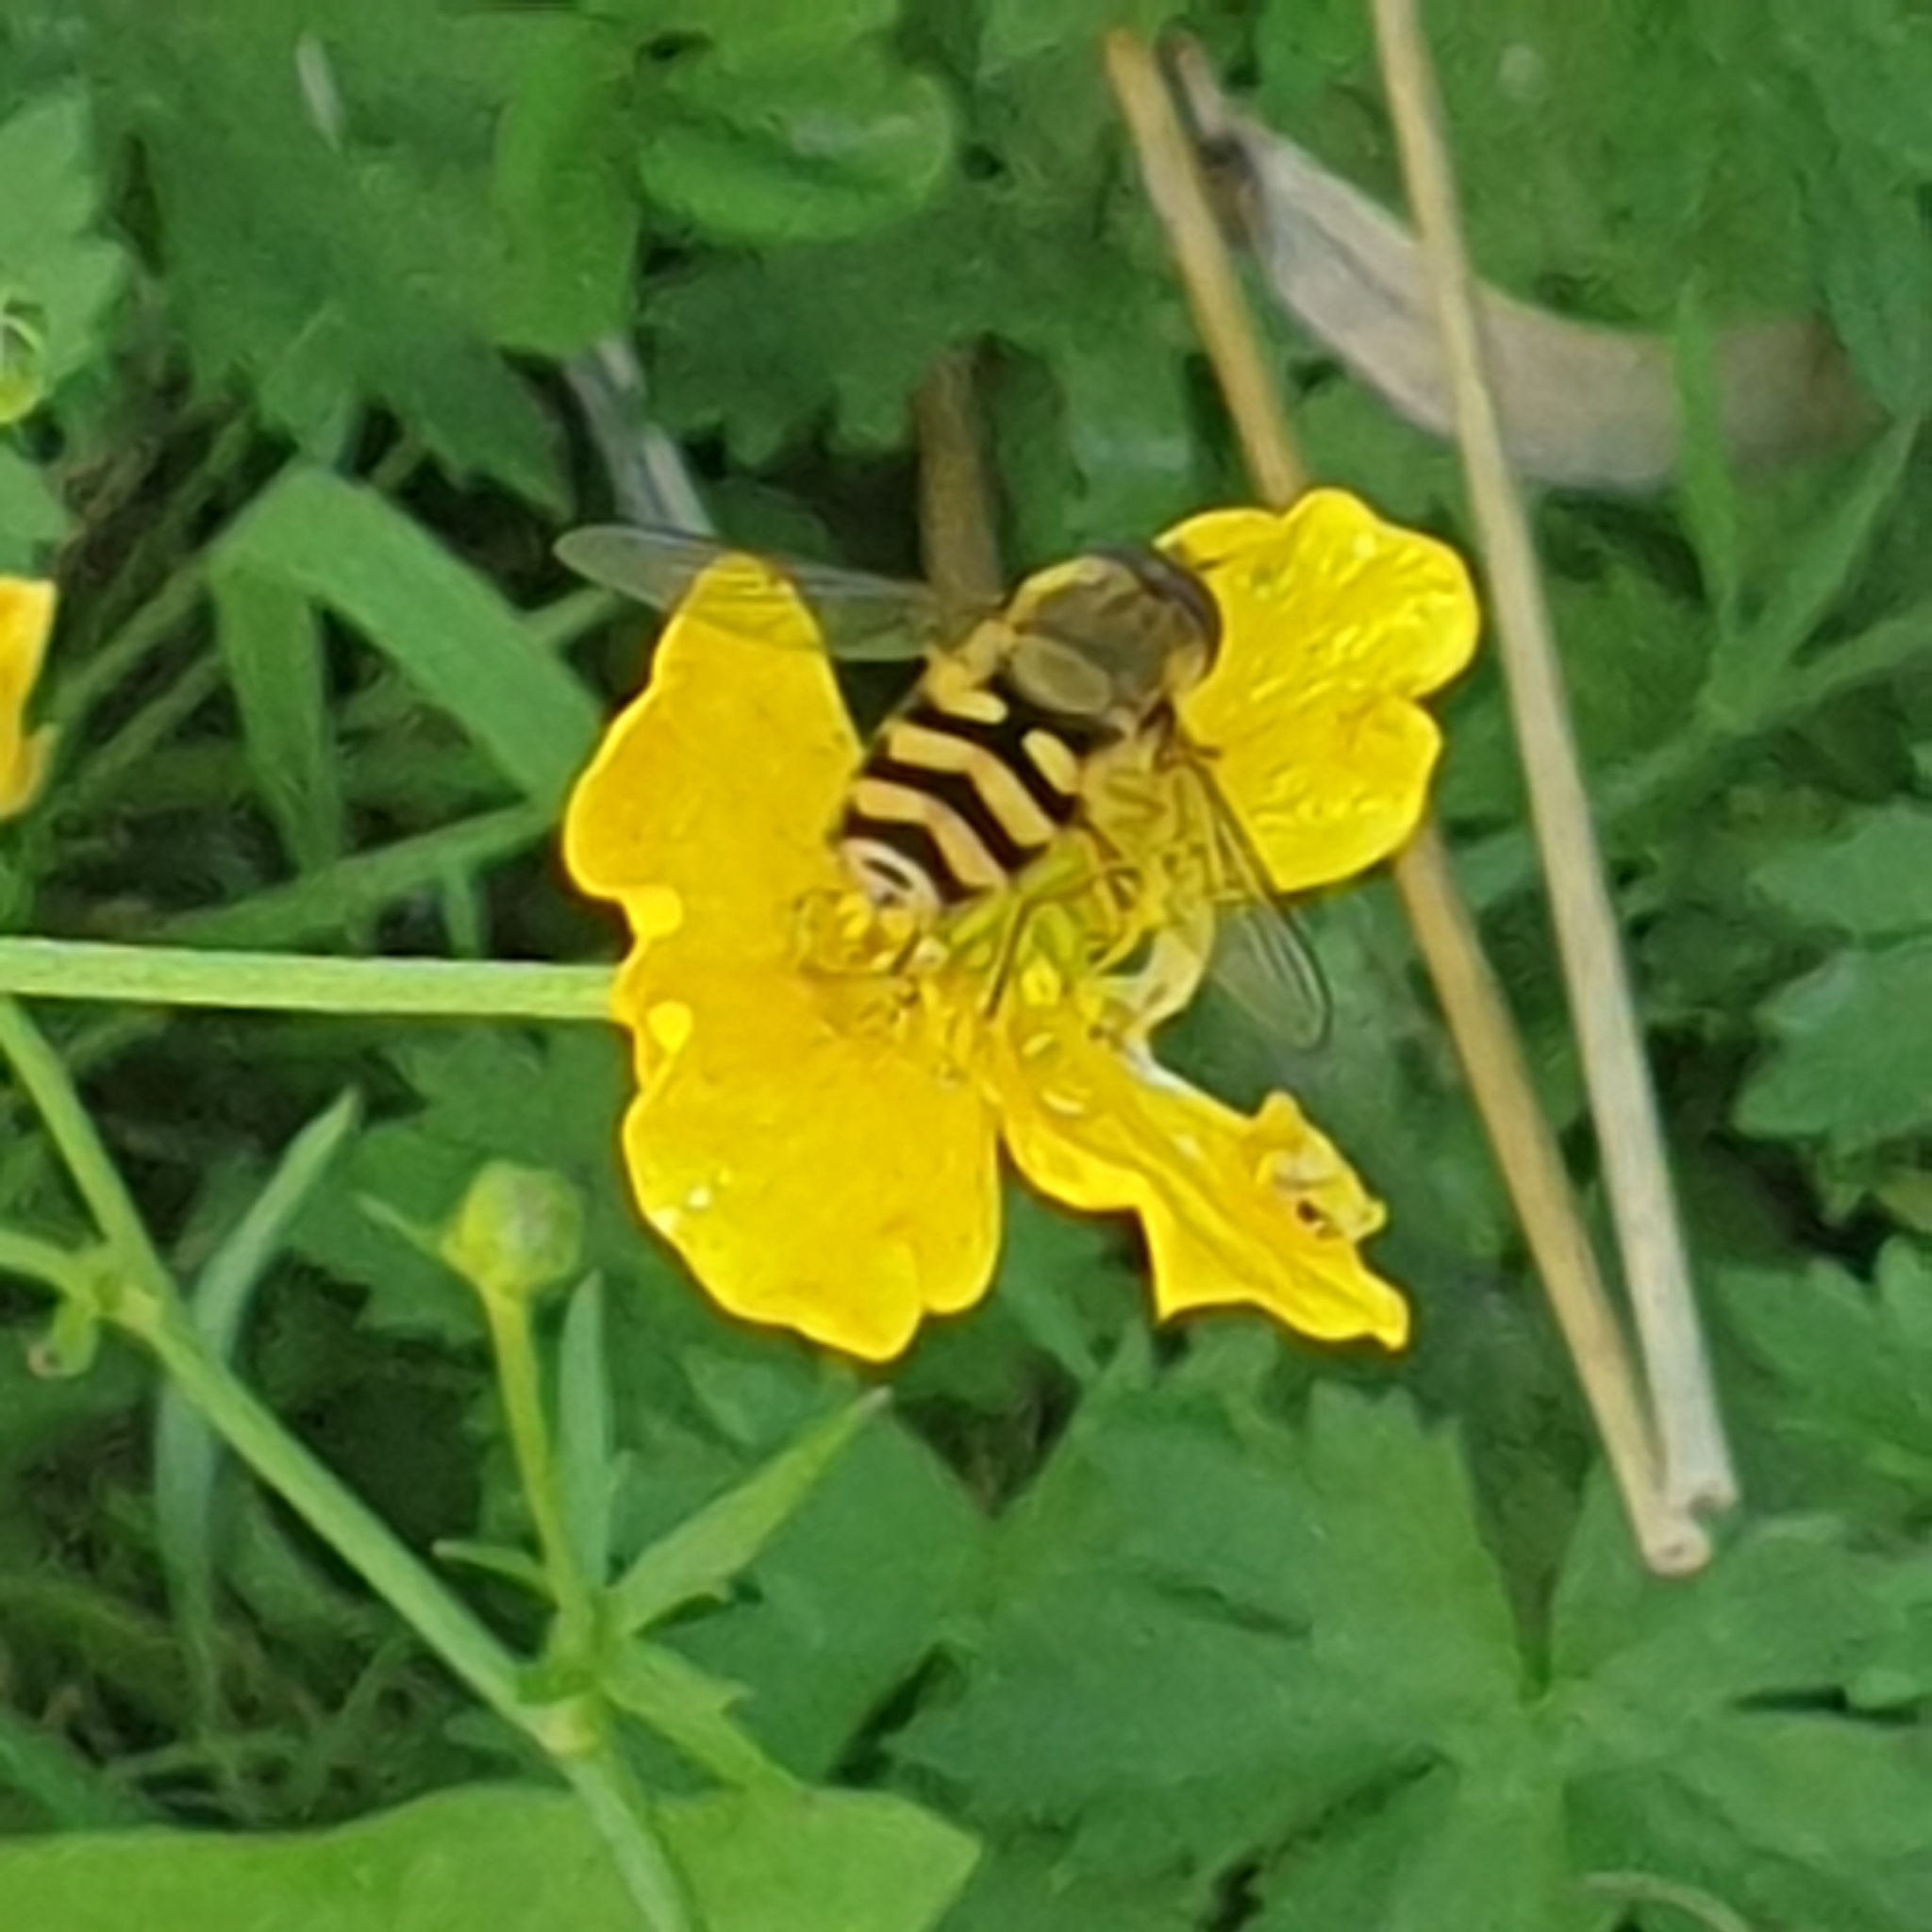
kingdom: Animalia
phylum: Arthropoda
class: Insecta
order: Diptera
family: Syrphidae
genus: Syrphus
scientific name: Syrphus
